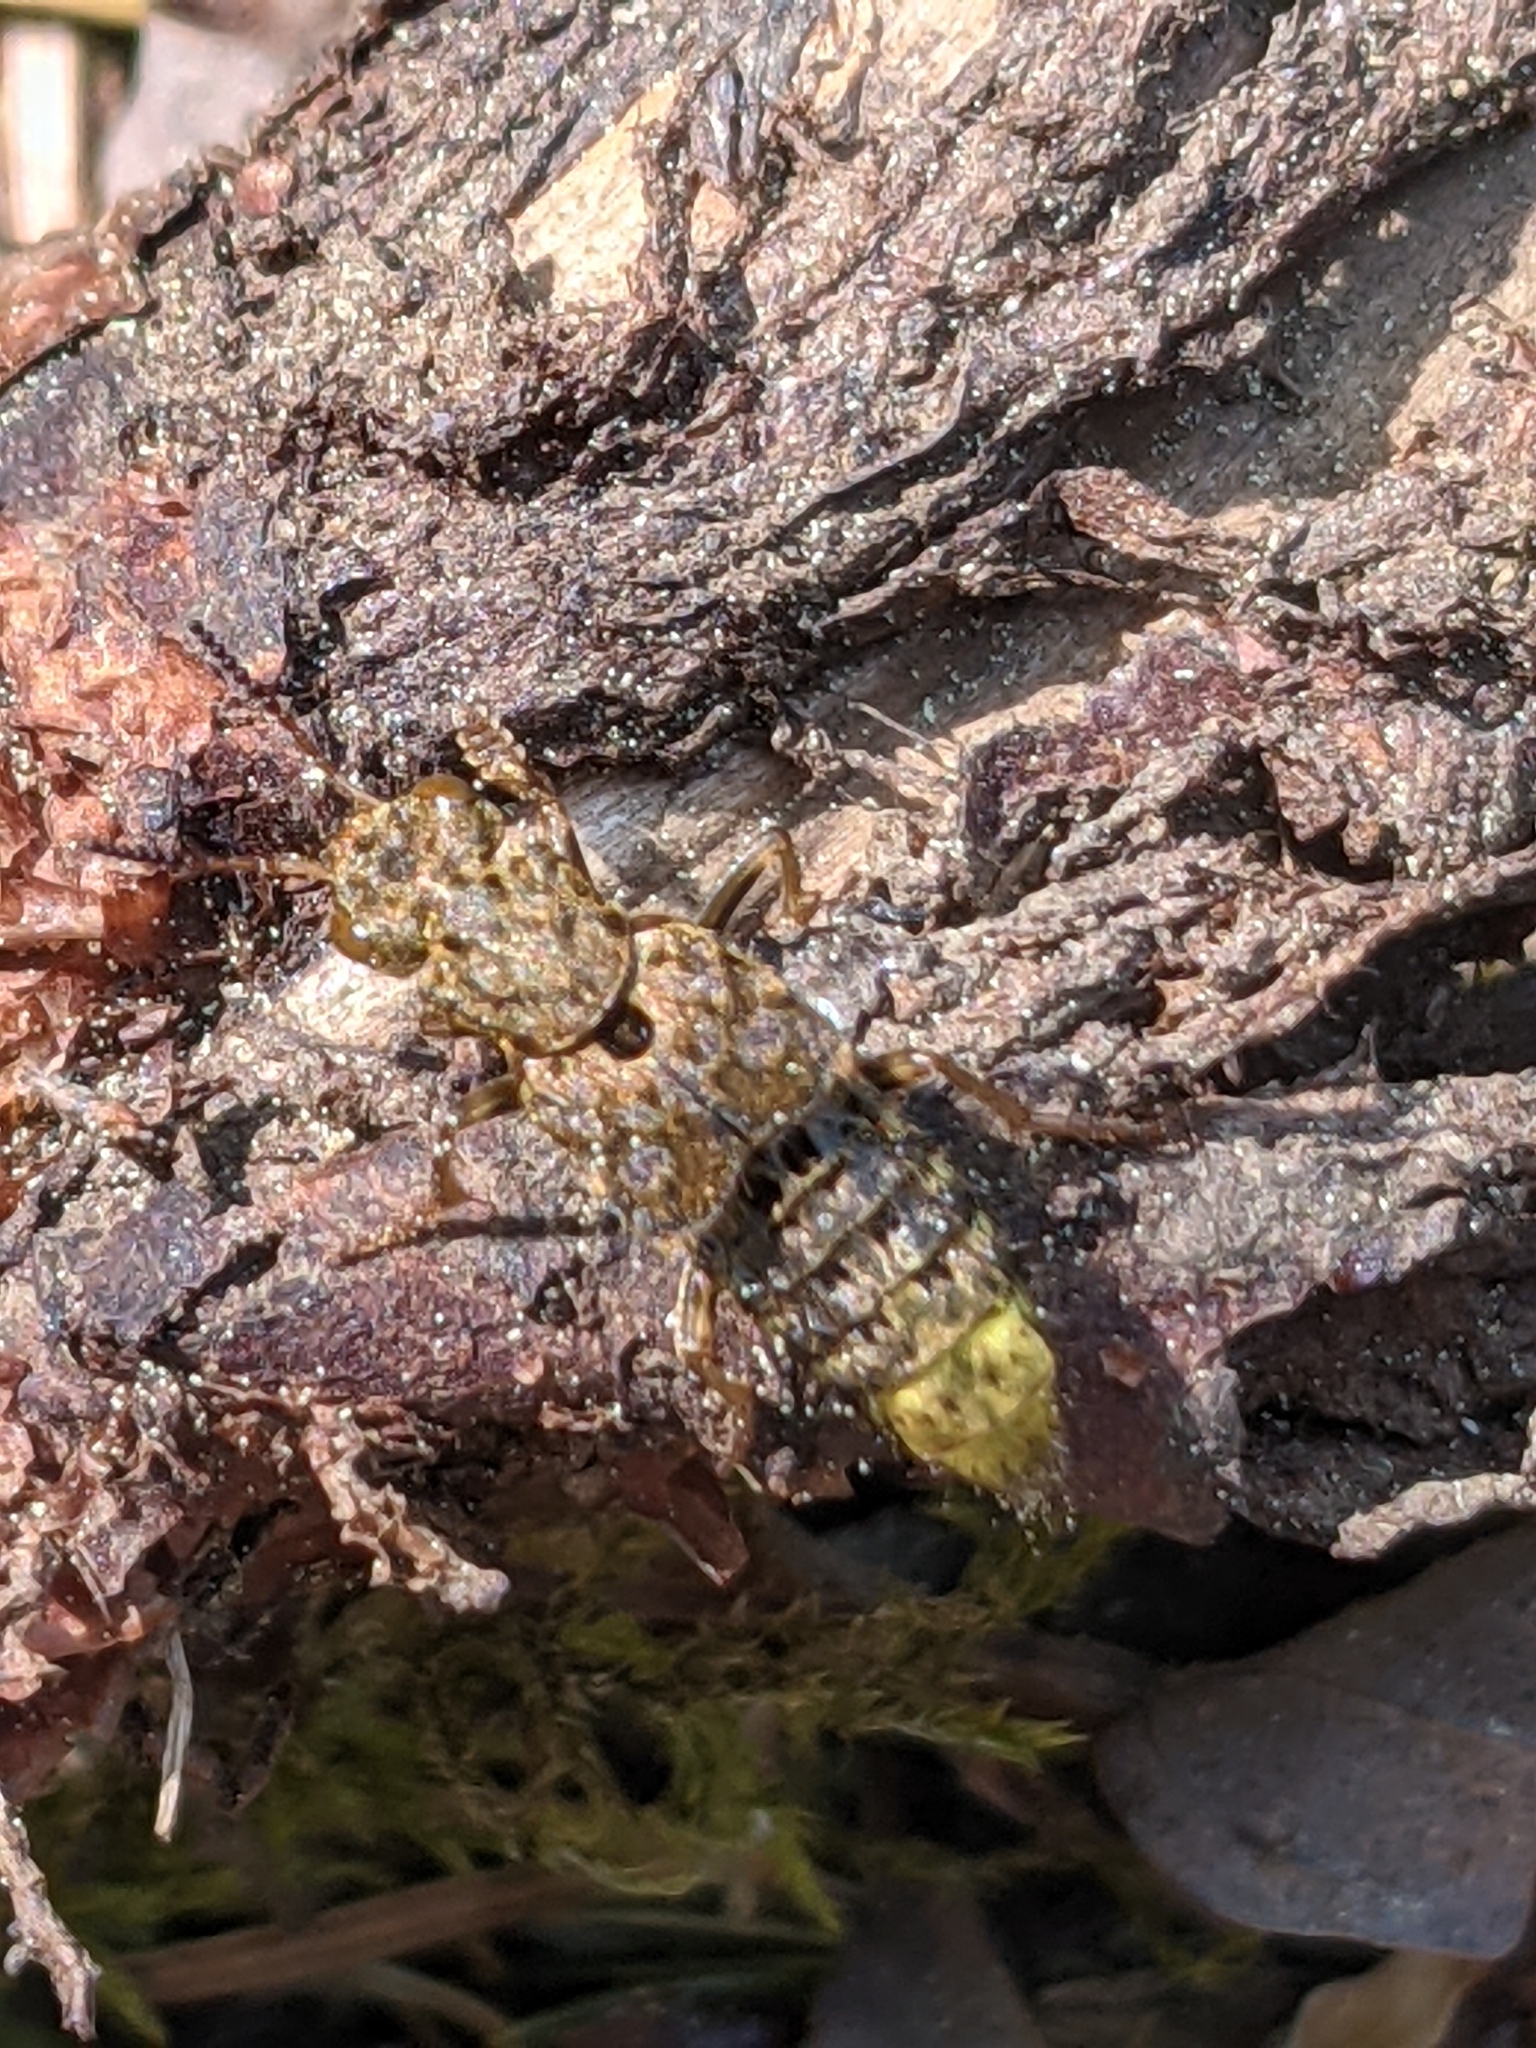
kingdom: Animalia
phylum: Arthropoda
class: Insecta
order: Coleoptera
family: Staphylinidae
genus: Ontholestes
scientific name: Ontholestes cingulatus
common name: Gold-and-brown rove beetle
